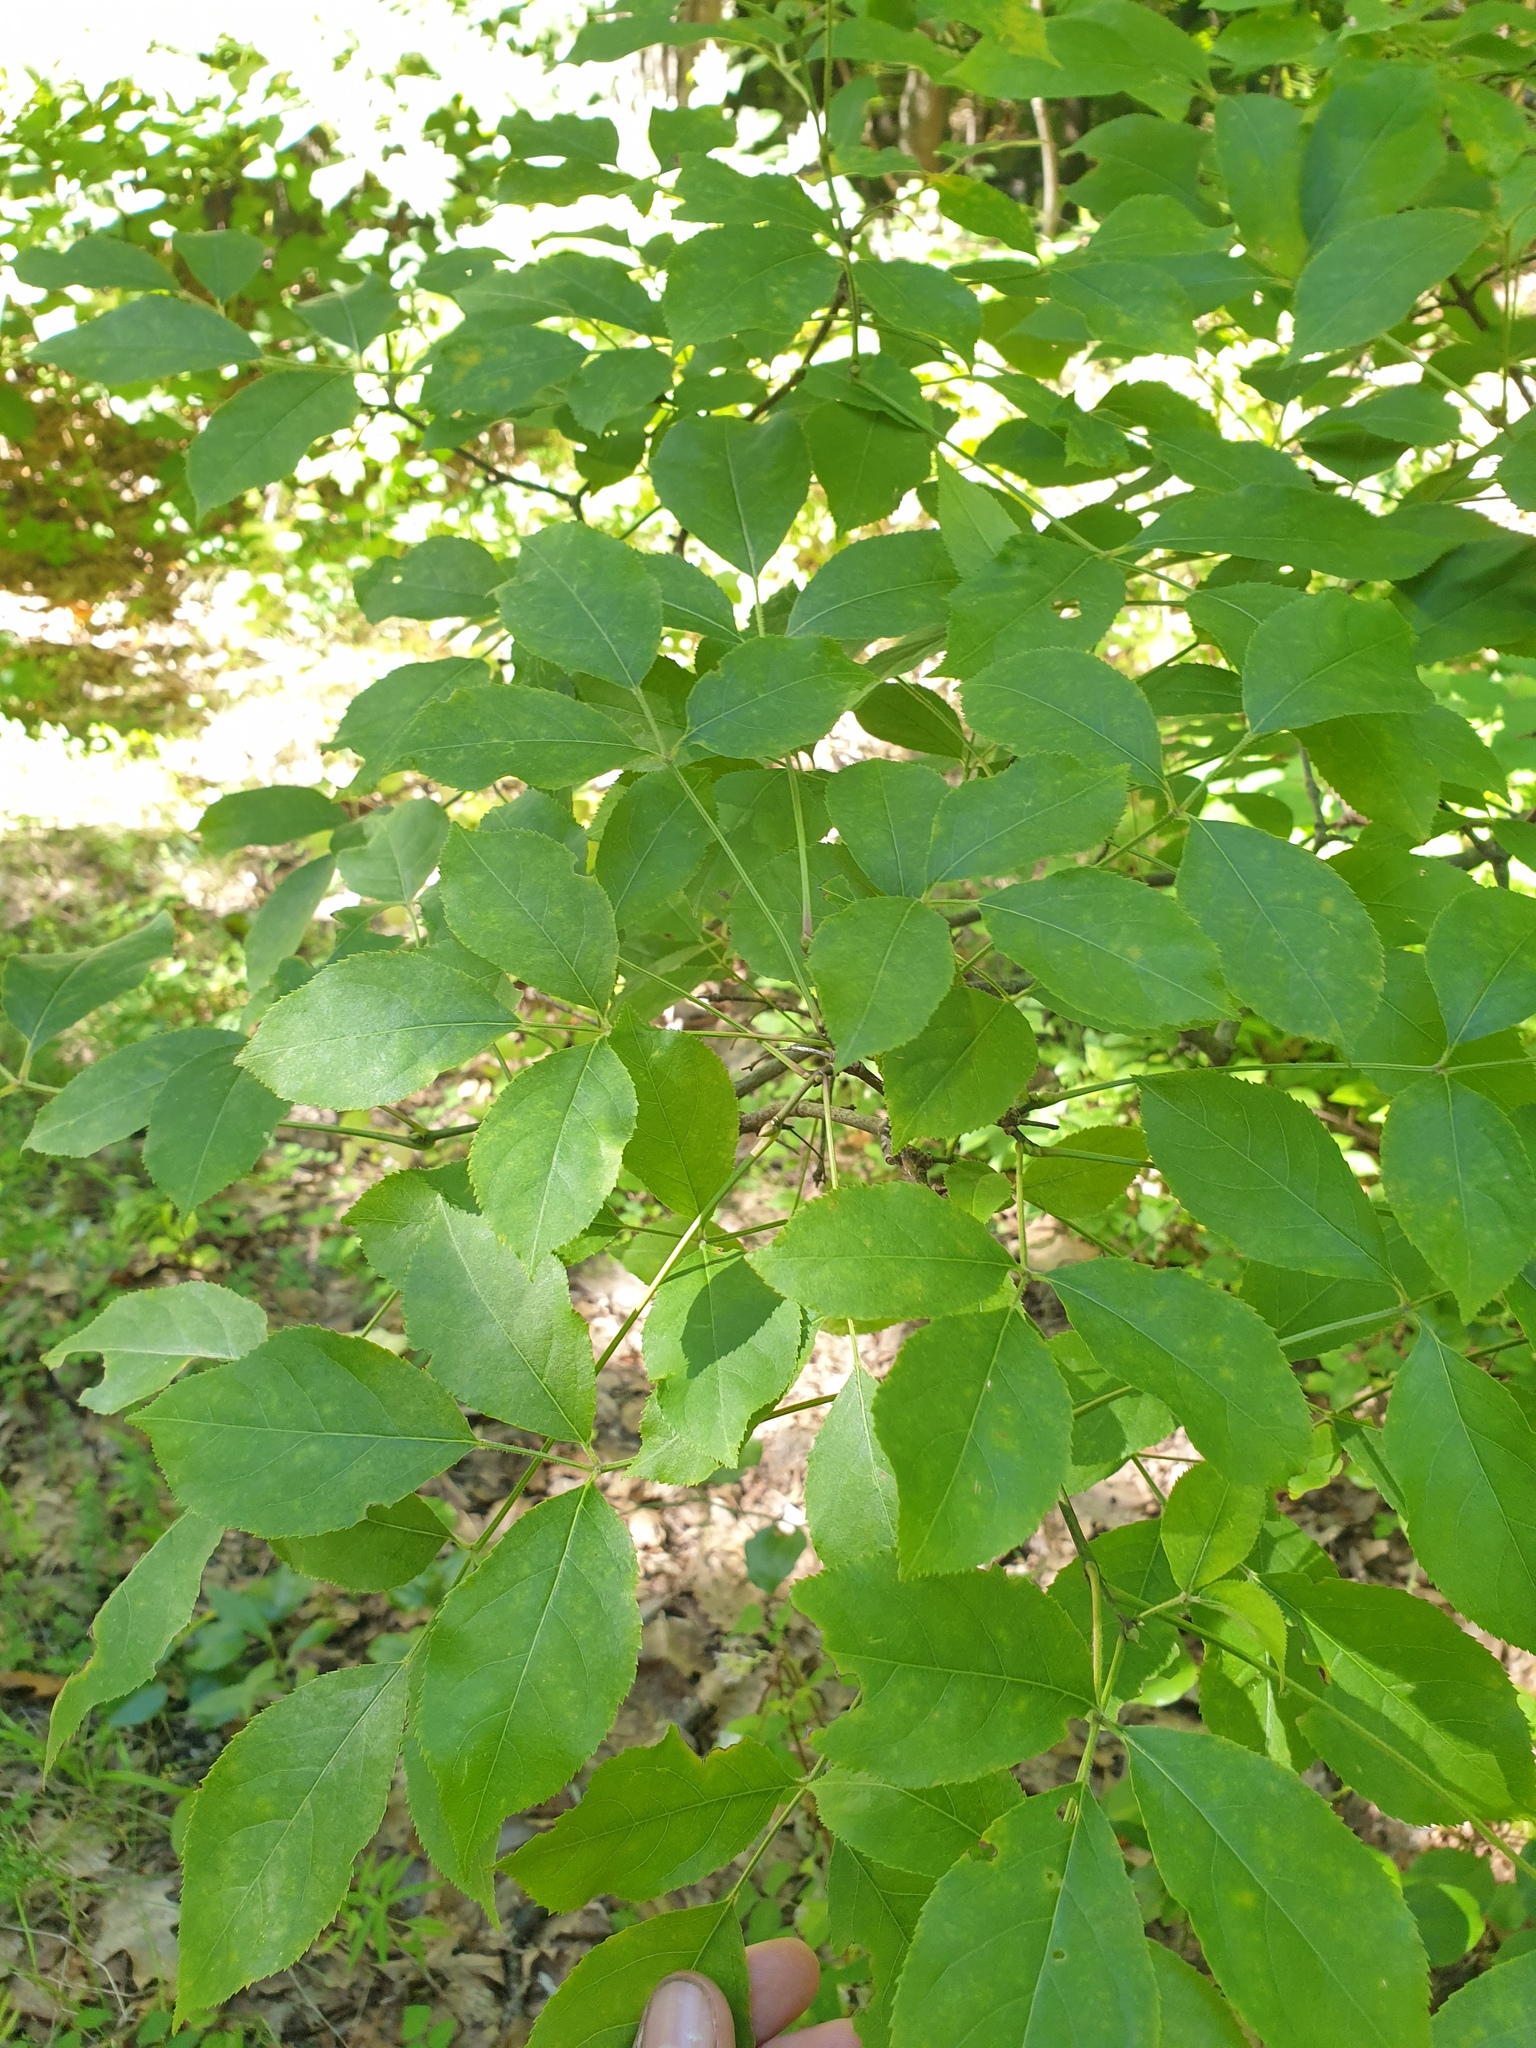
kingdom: Plantae
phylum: Tracheophyta
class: Magnoliopsida
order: Crossosomatales
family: Staphyleaceae
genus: Staphylea
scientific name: Staphylea trifolia
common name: American bladdernut
